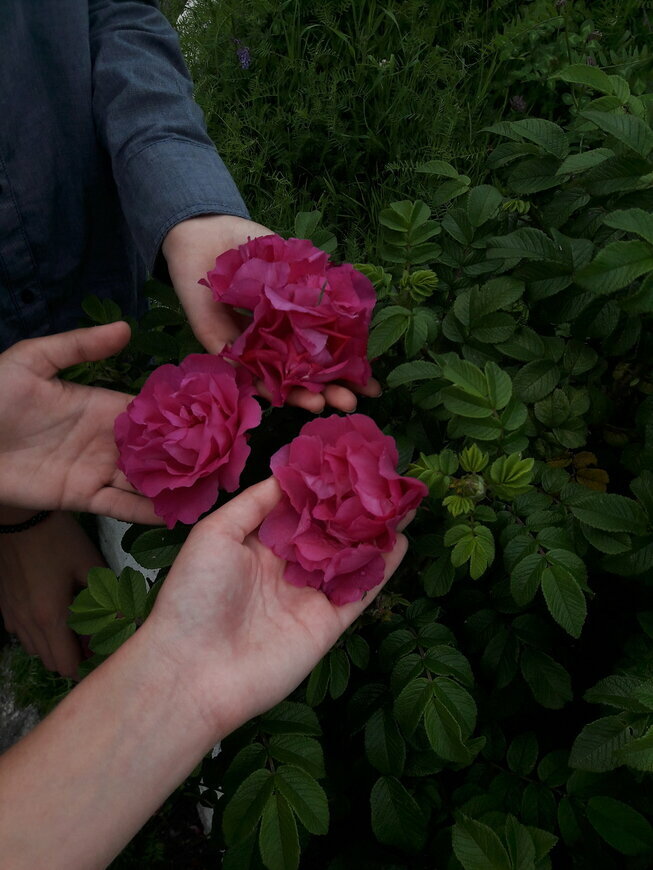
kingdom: Plantae
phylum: Tracheophyta
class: Magnoliopsida
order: Rosales
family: Rosaceae
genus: Rosa
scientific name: Rosa rugosa
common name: Japanese rose
